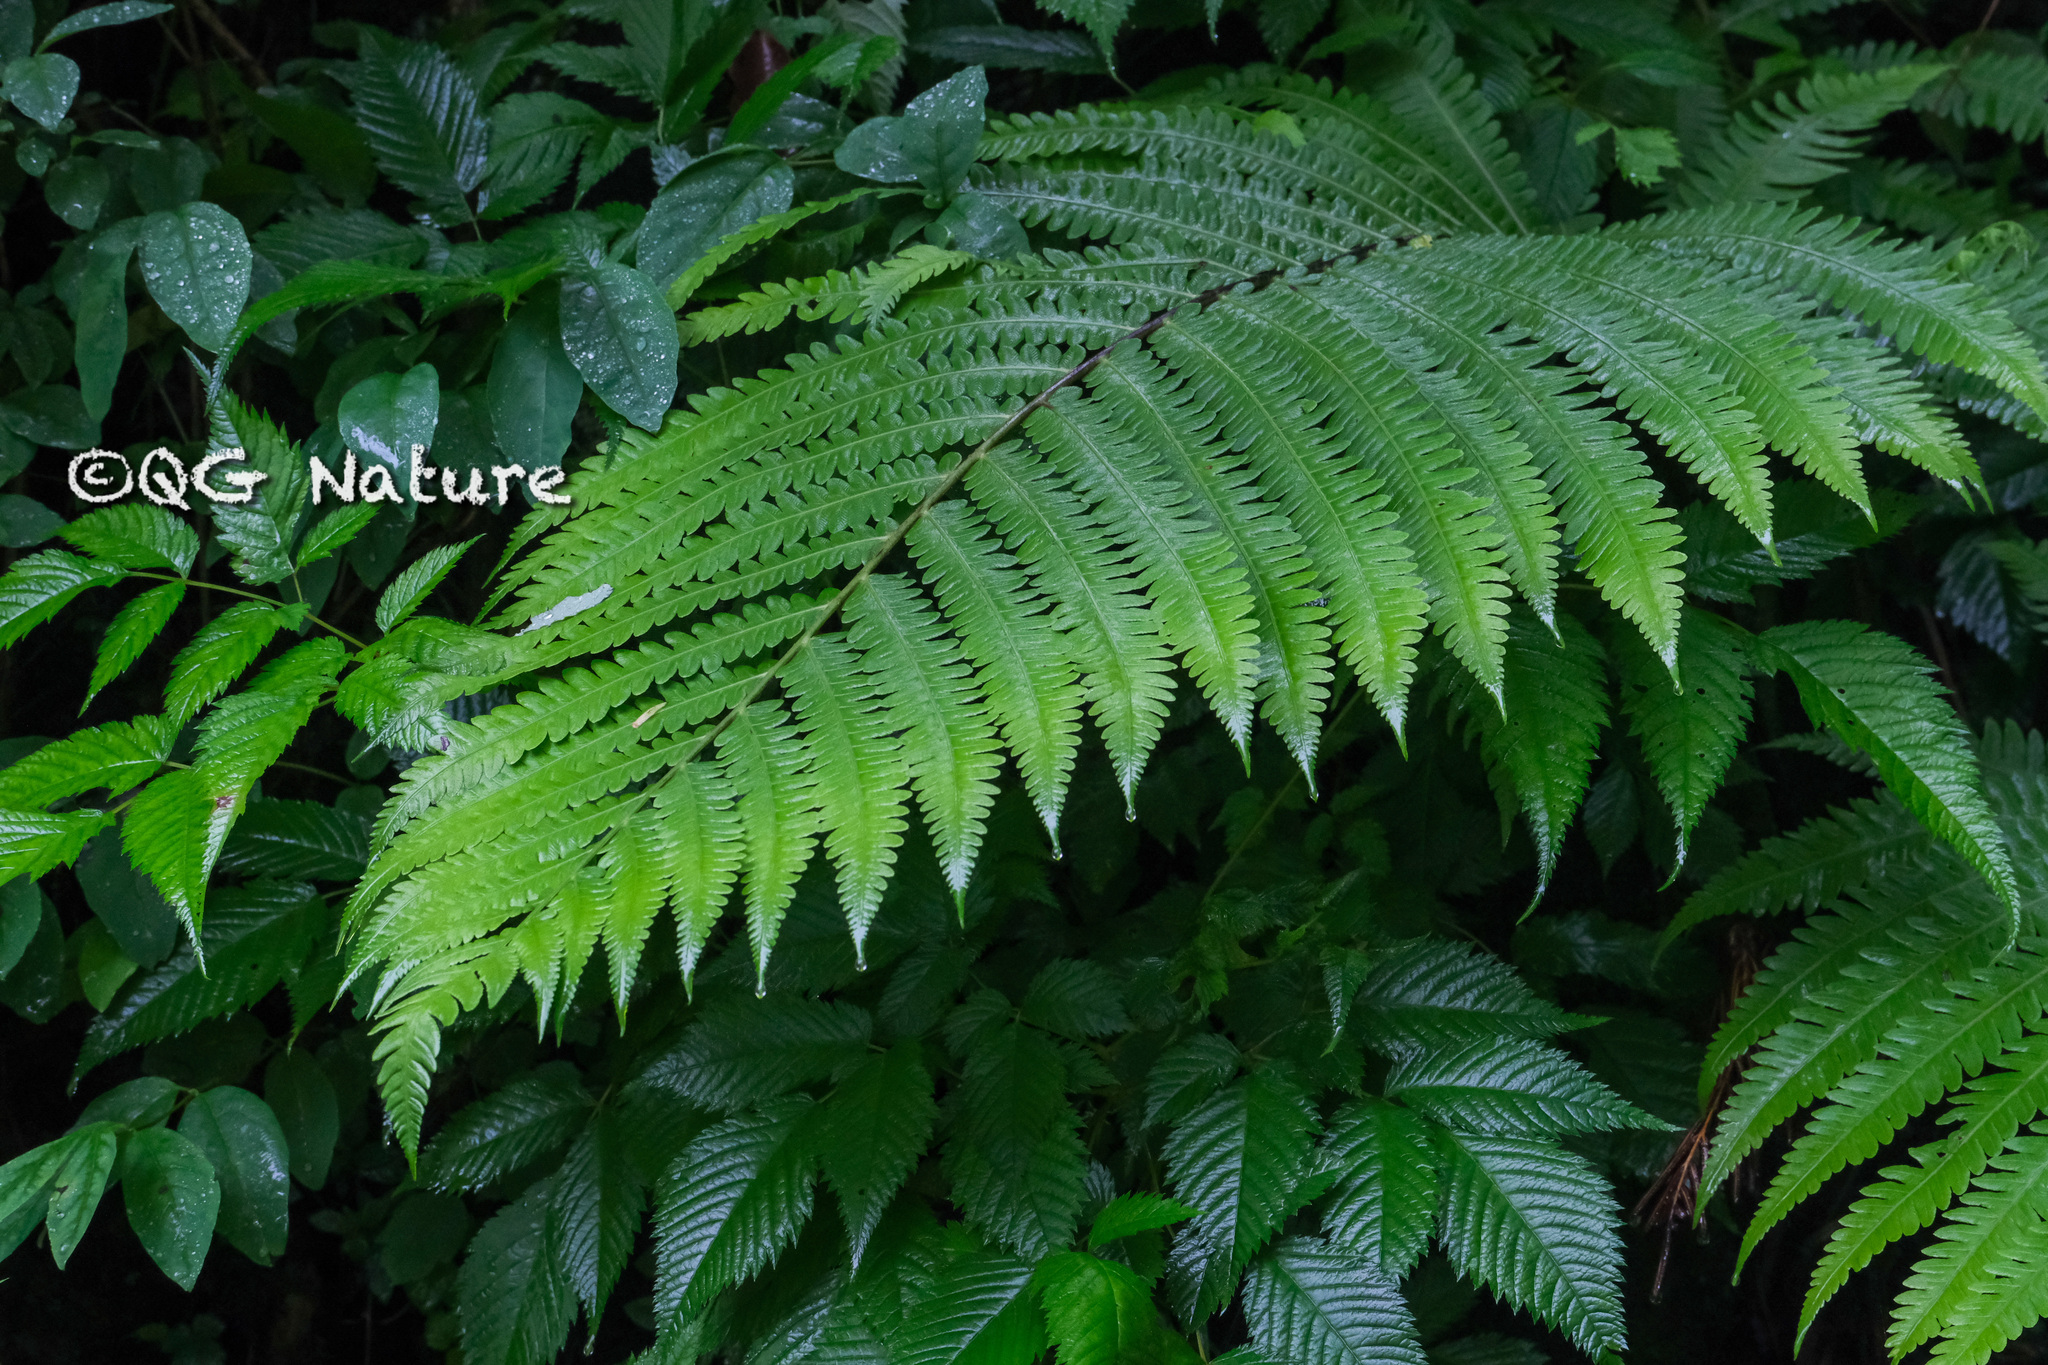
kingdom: Plantae
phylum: Tracheophyta
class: Polypodiopsida
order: Polypodiales
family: Onocleaceae
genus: Pentarhizidium
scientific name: Pentarhizidium orientale
